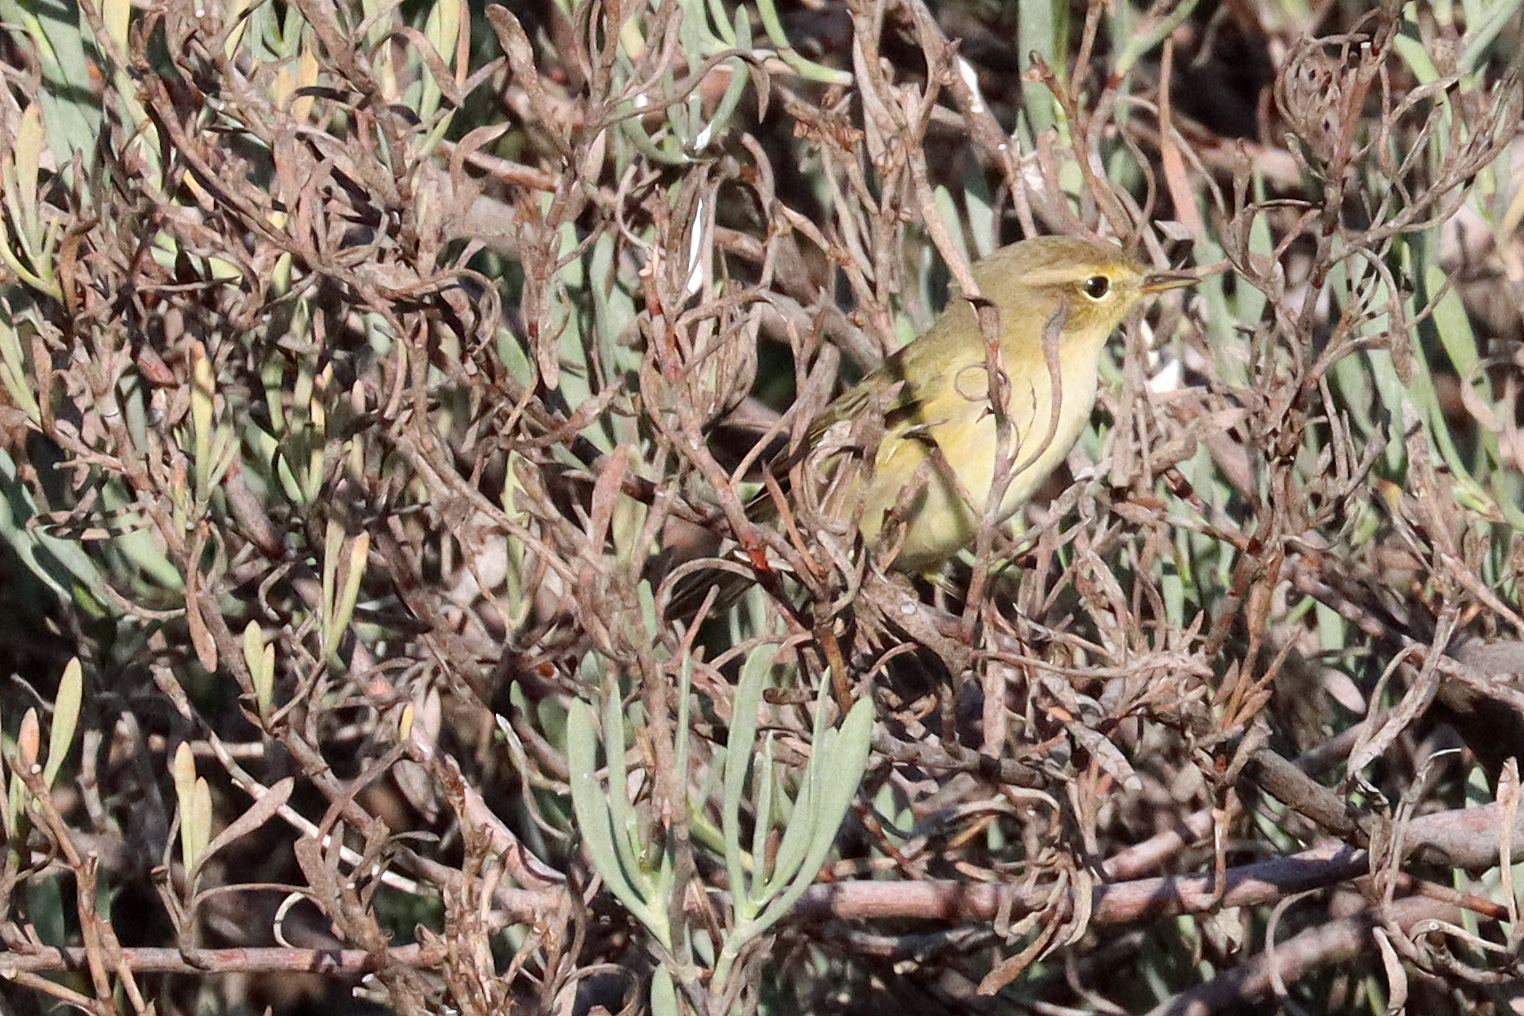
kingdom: Animalia
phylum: Chordata
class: Aves
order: Passeriformes
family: Phylloscopidae
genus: Phylloscopus
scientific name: Phylloscopus collybita
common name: Common chiffchaff
